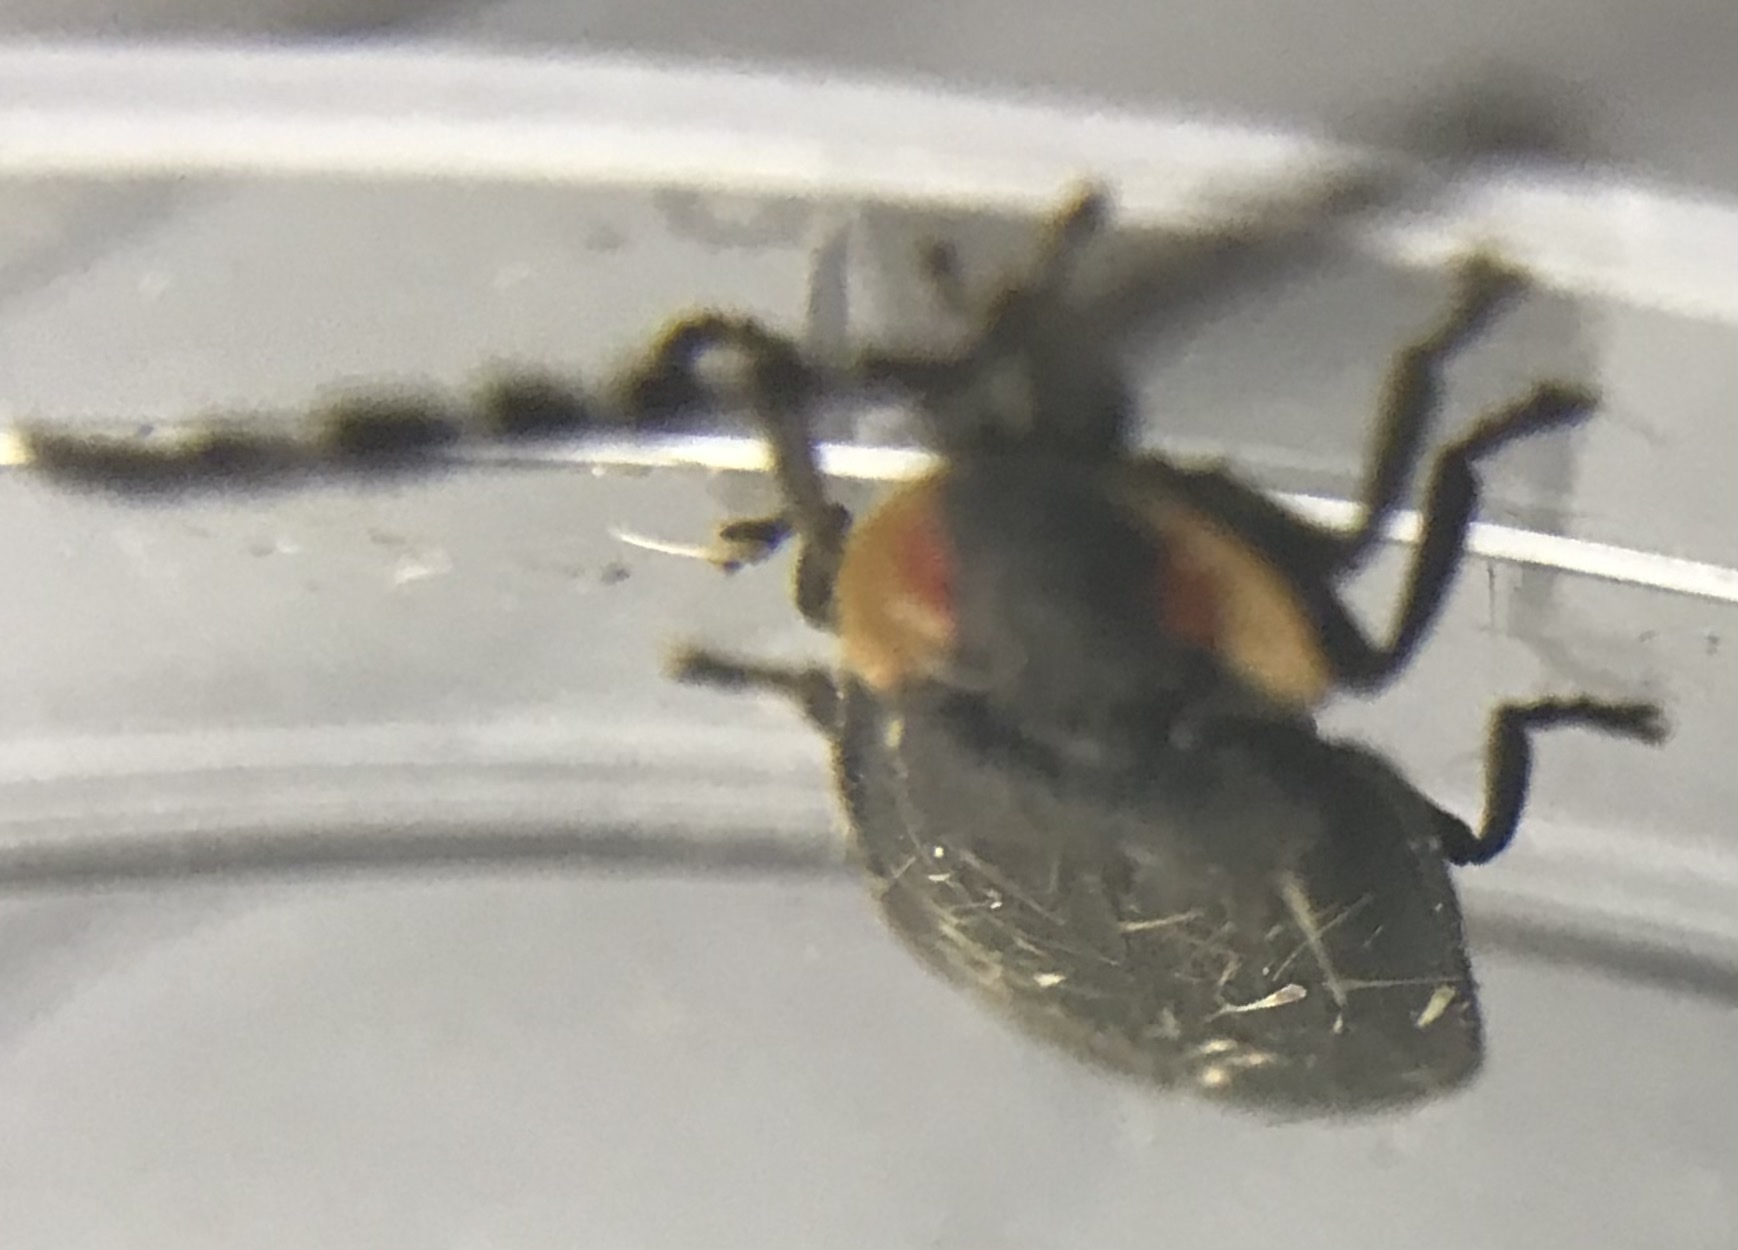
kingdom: Animalia
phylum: Arthropoda
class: Insecta
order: Coleoptera
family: Lampyridae
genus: Lucidota
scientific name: Lucidota atra
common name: Black firefly
